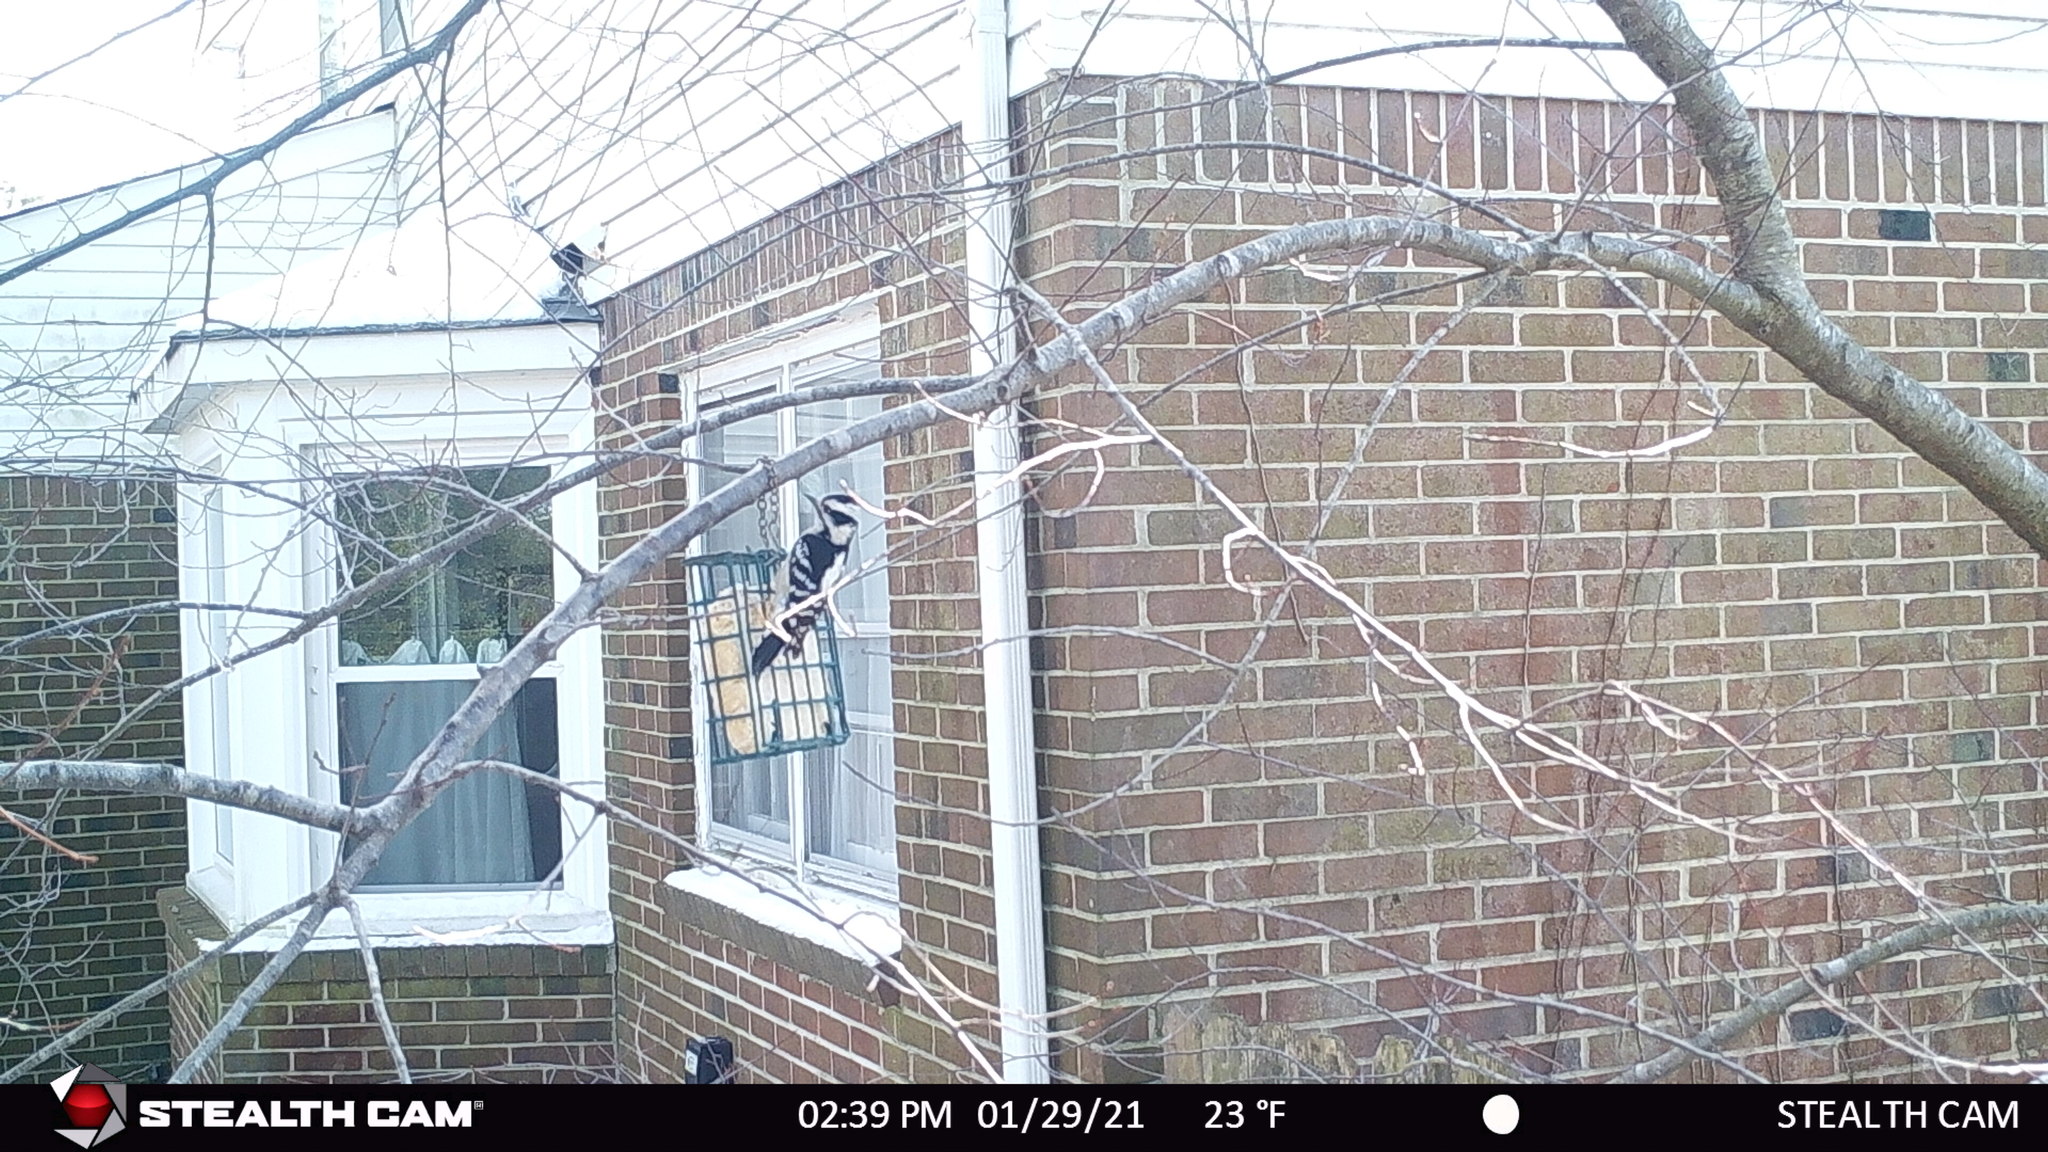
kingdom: Animalia
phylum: Chordata
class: Aves
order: Piciformes
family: Picidae
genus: Dryobates
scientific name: Dryobates pubescens
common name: Downy woodpecker
